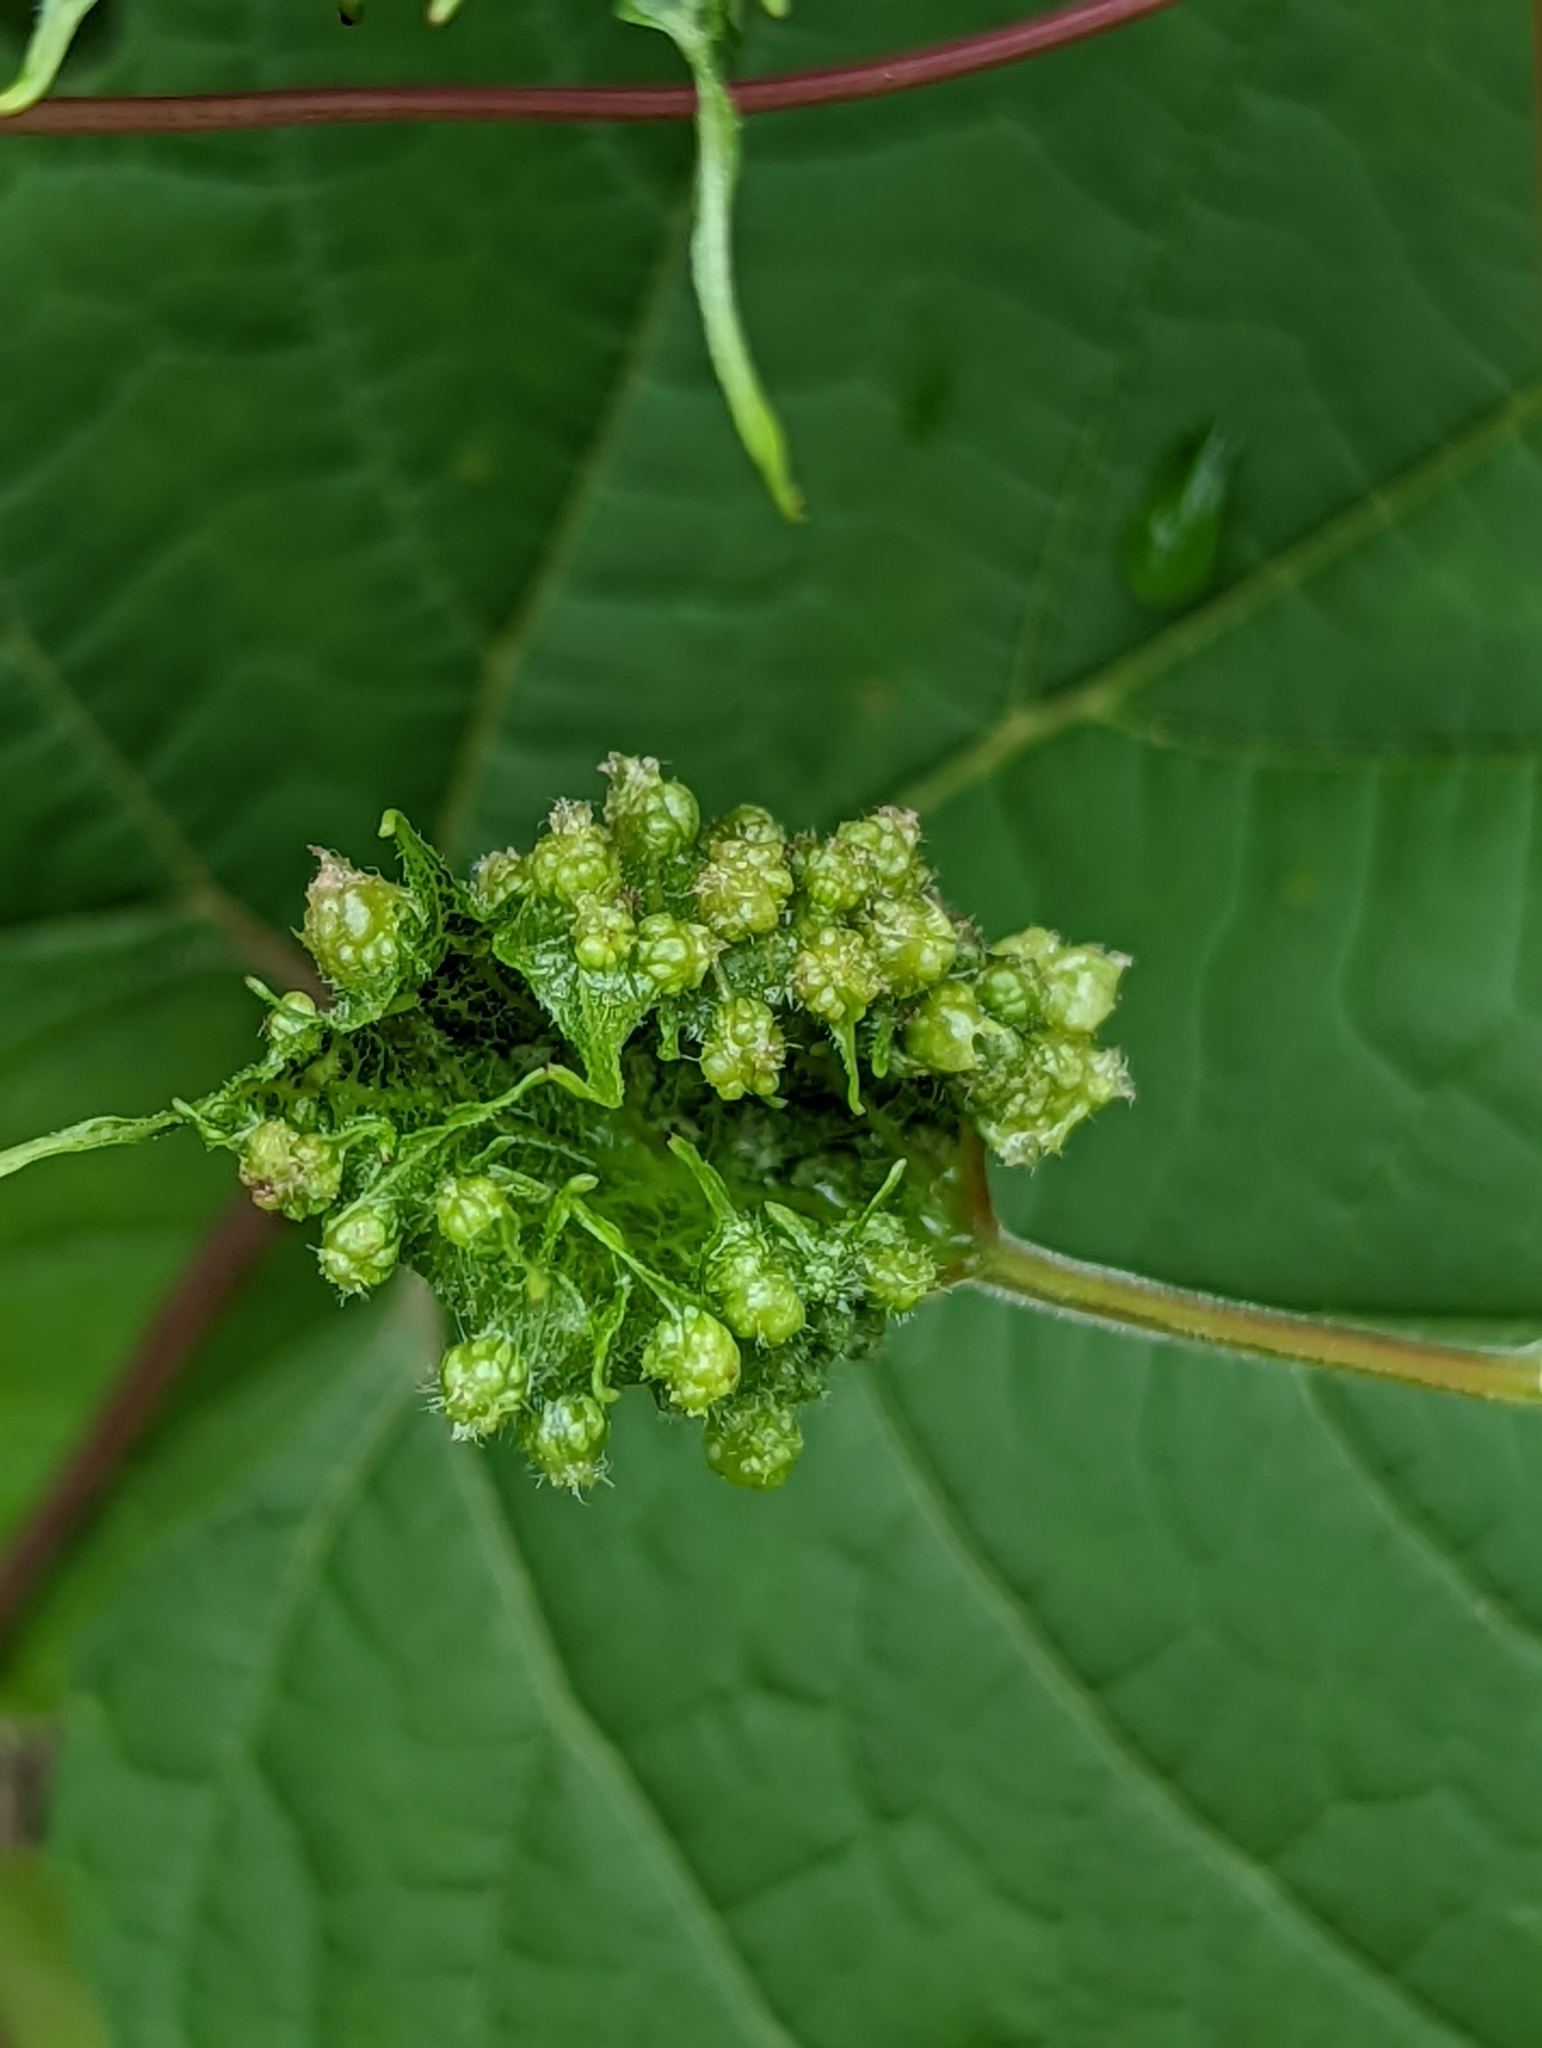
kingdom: Animalia
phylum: Arthropoda
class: Insecta
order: Hemiptera
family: Phylloxeridae
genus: Daktulosphaira
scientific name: Daktulosphaira vitifoliae
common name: Grape phylloxera
